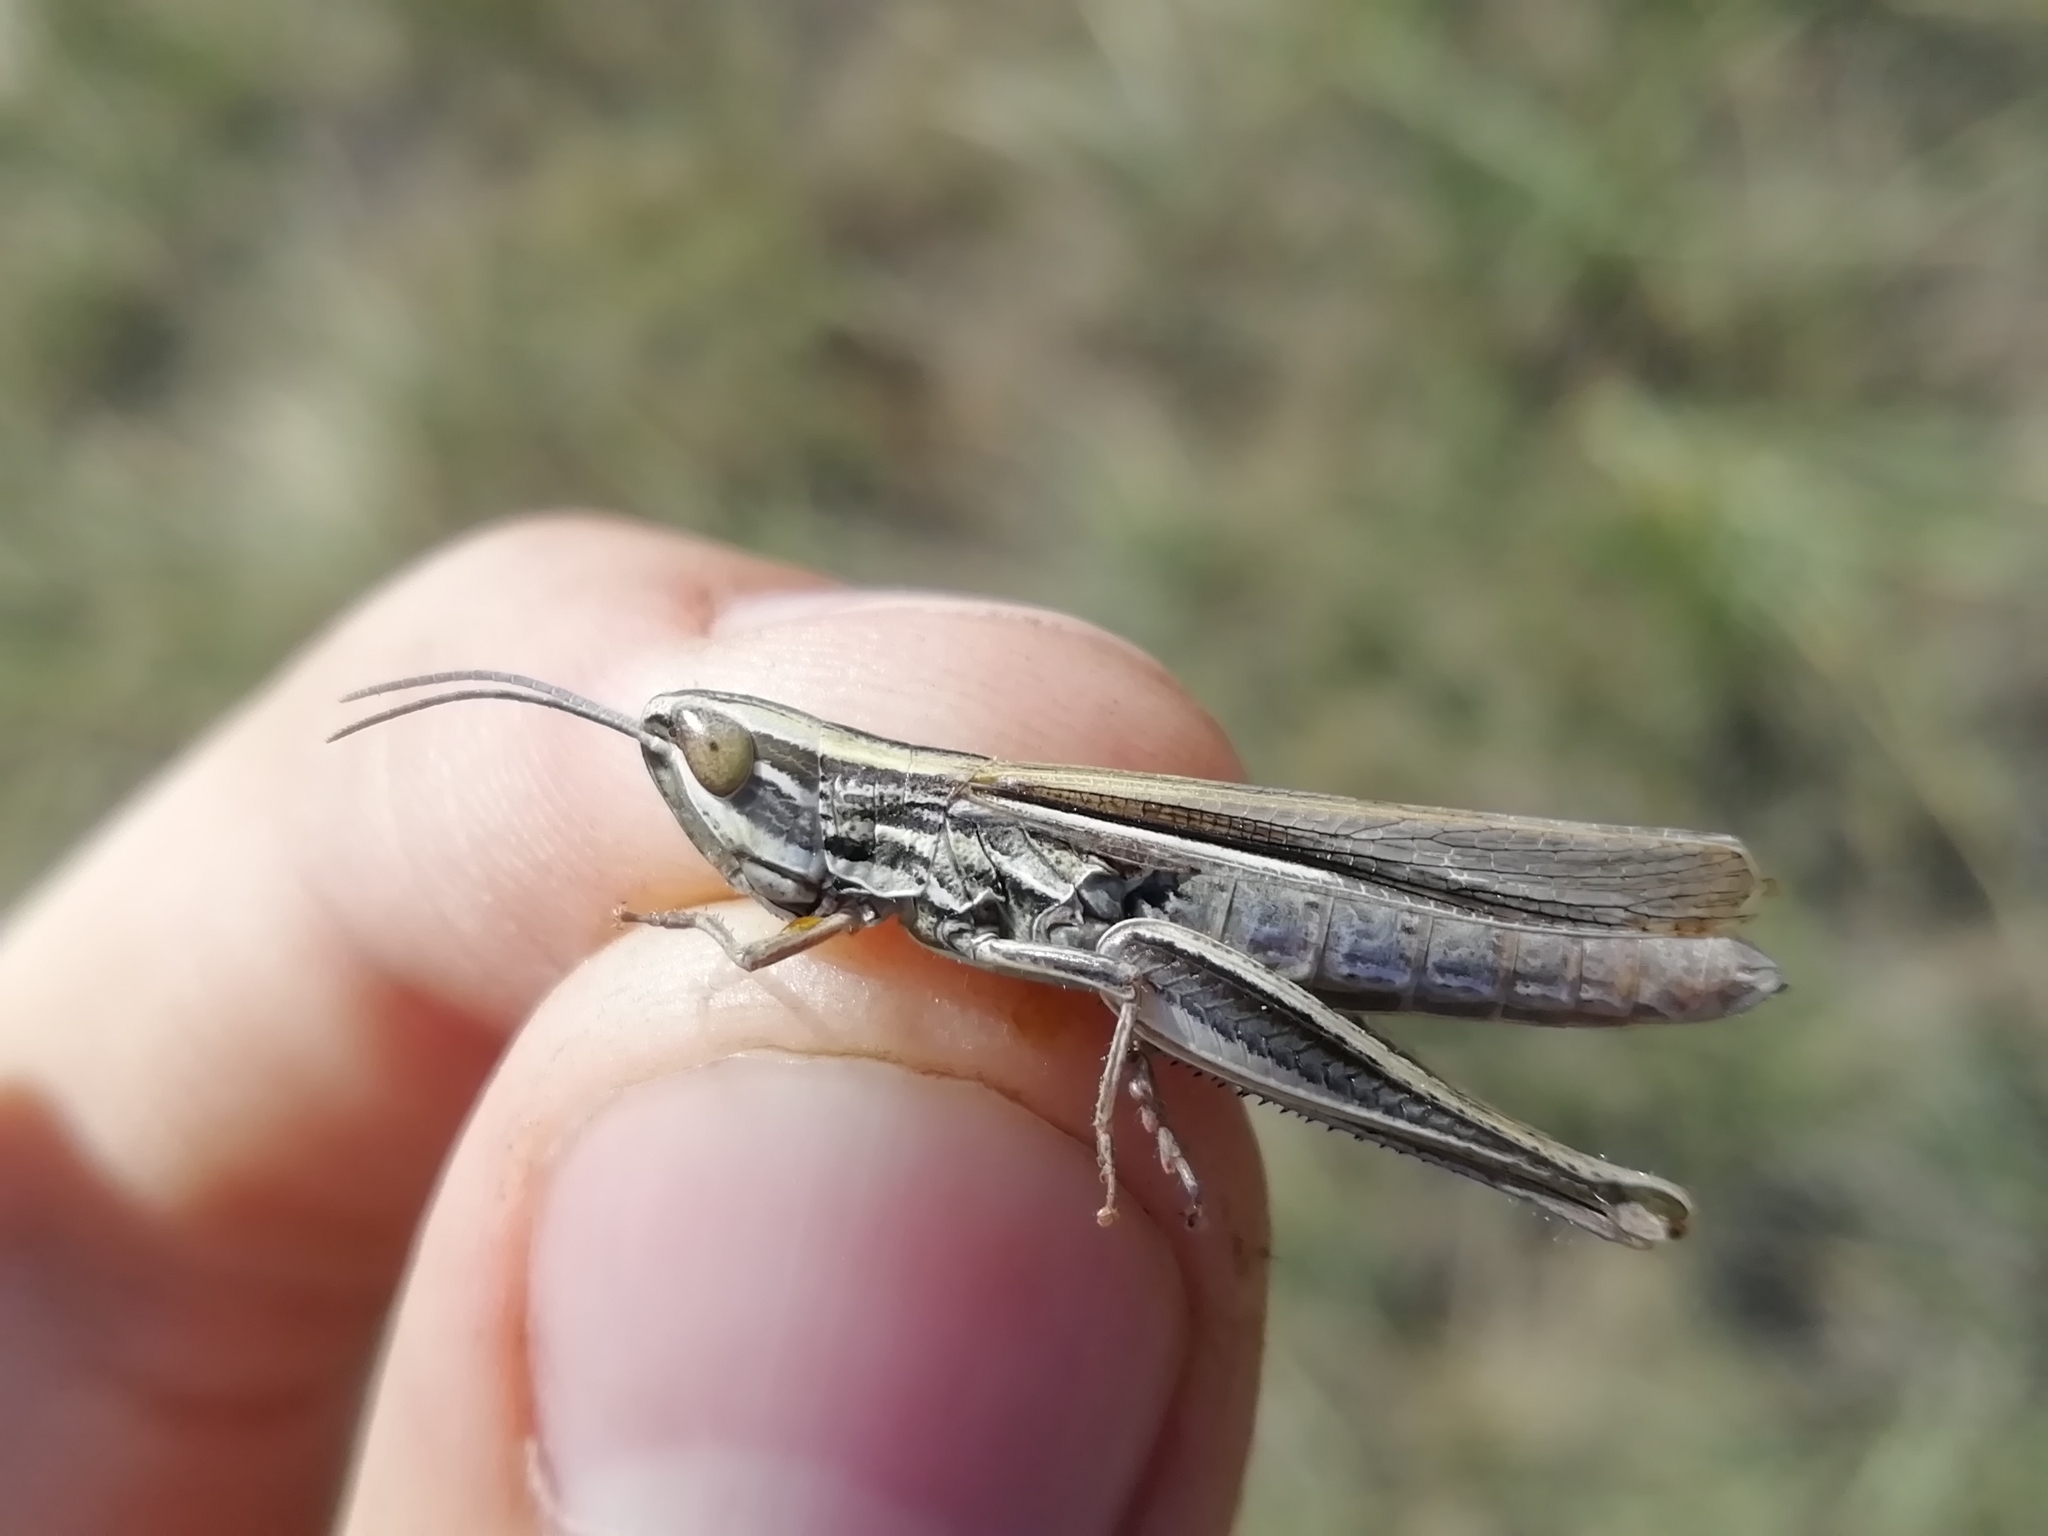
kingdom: Animalia
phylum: Arthropoda
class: Insecta
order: Orthoptera
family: Acrididae
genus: Euchorthippus
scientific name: Euchorthippus pulvinatus
